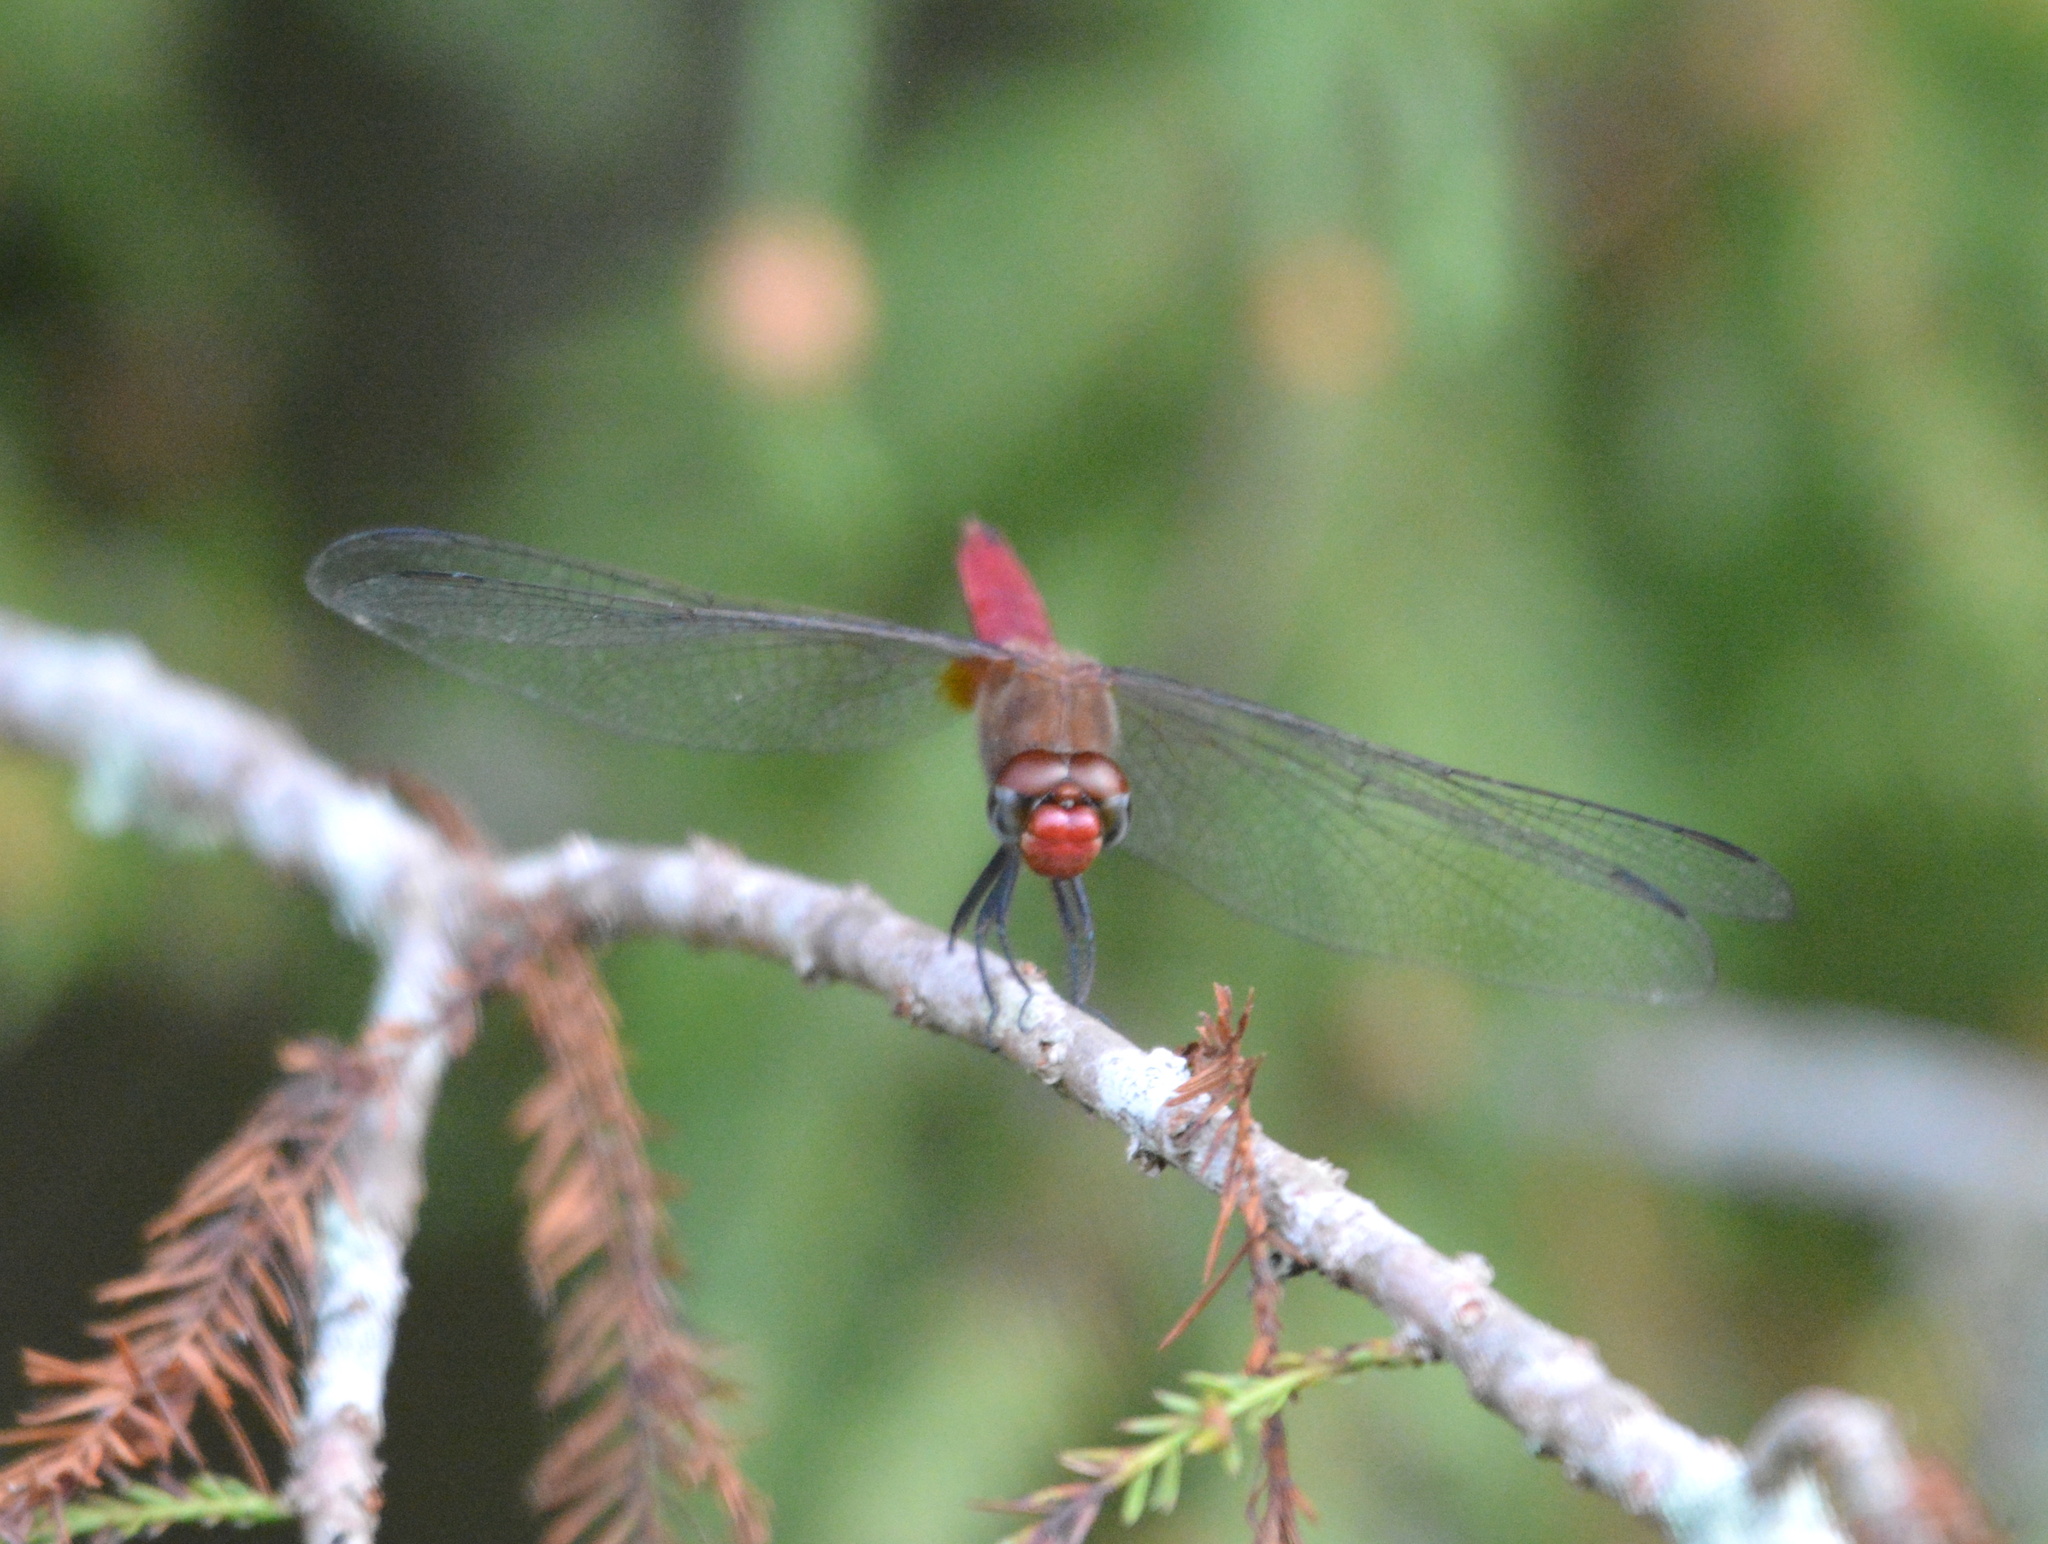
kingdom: Animalia
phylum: Arthropoda
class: Insecta
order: Odonata
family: Libellulidae
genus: Brachymesia
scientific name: Brachymesia furcata
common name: Red-taled pennant
